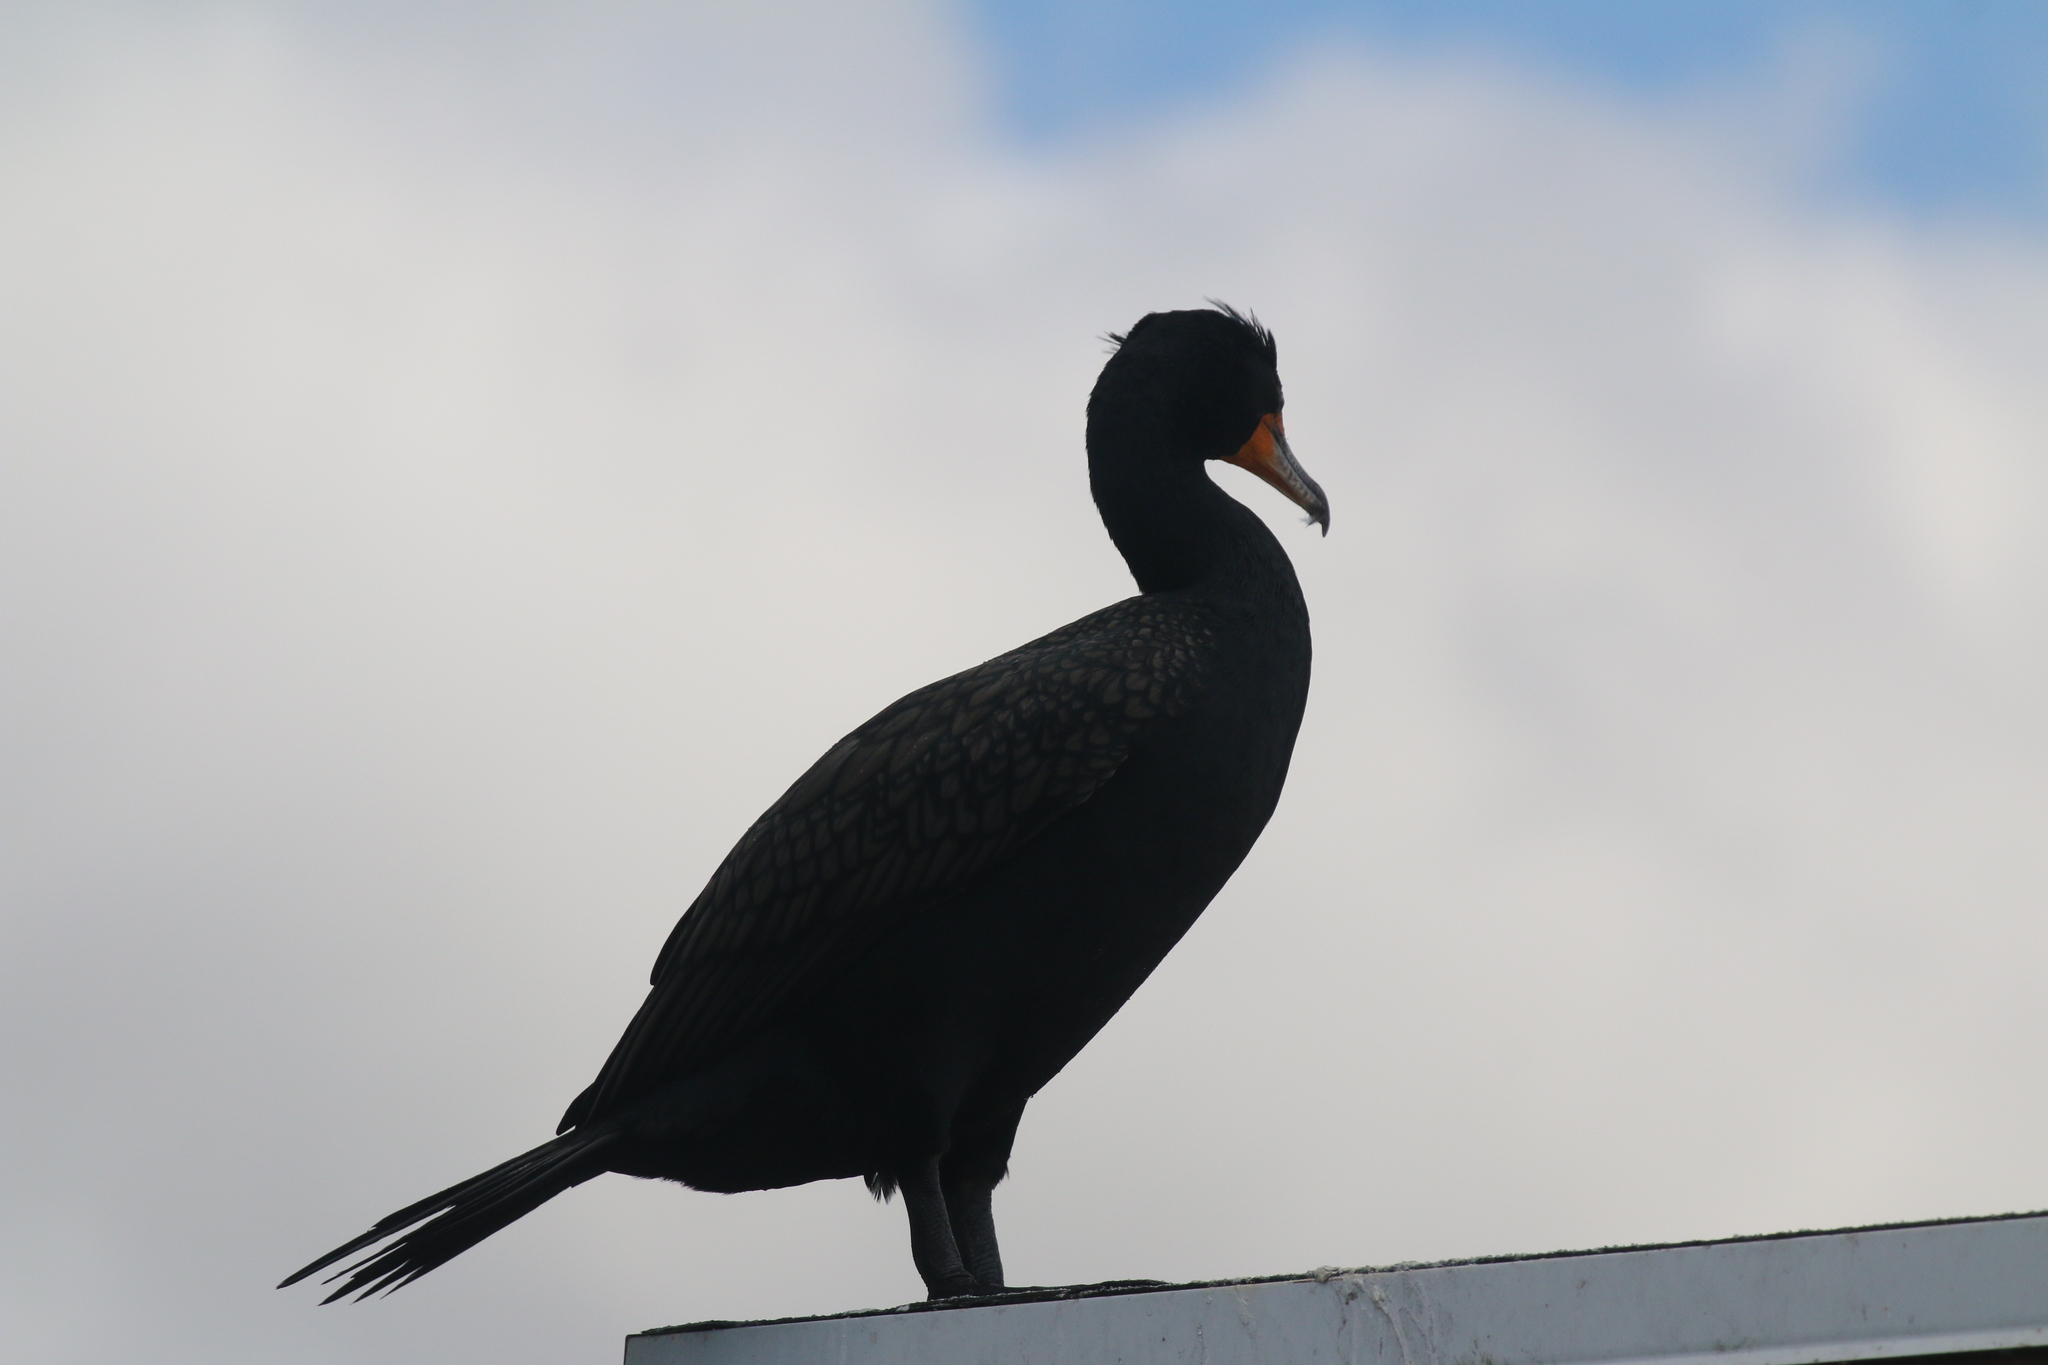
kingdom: Animalia
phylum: Chordata
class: Aves
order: Suliformes
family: Phalacrocoracidae
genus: Phalacrocorax
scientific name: Phalacrocorax auritus
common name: Double-crested cormorant
